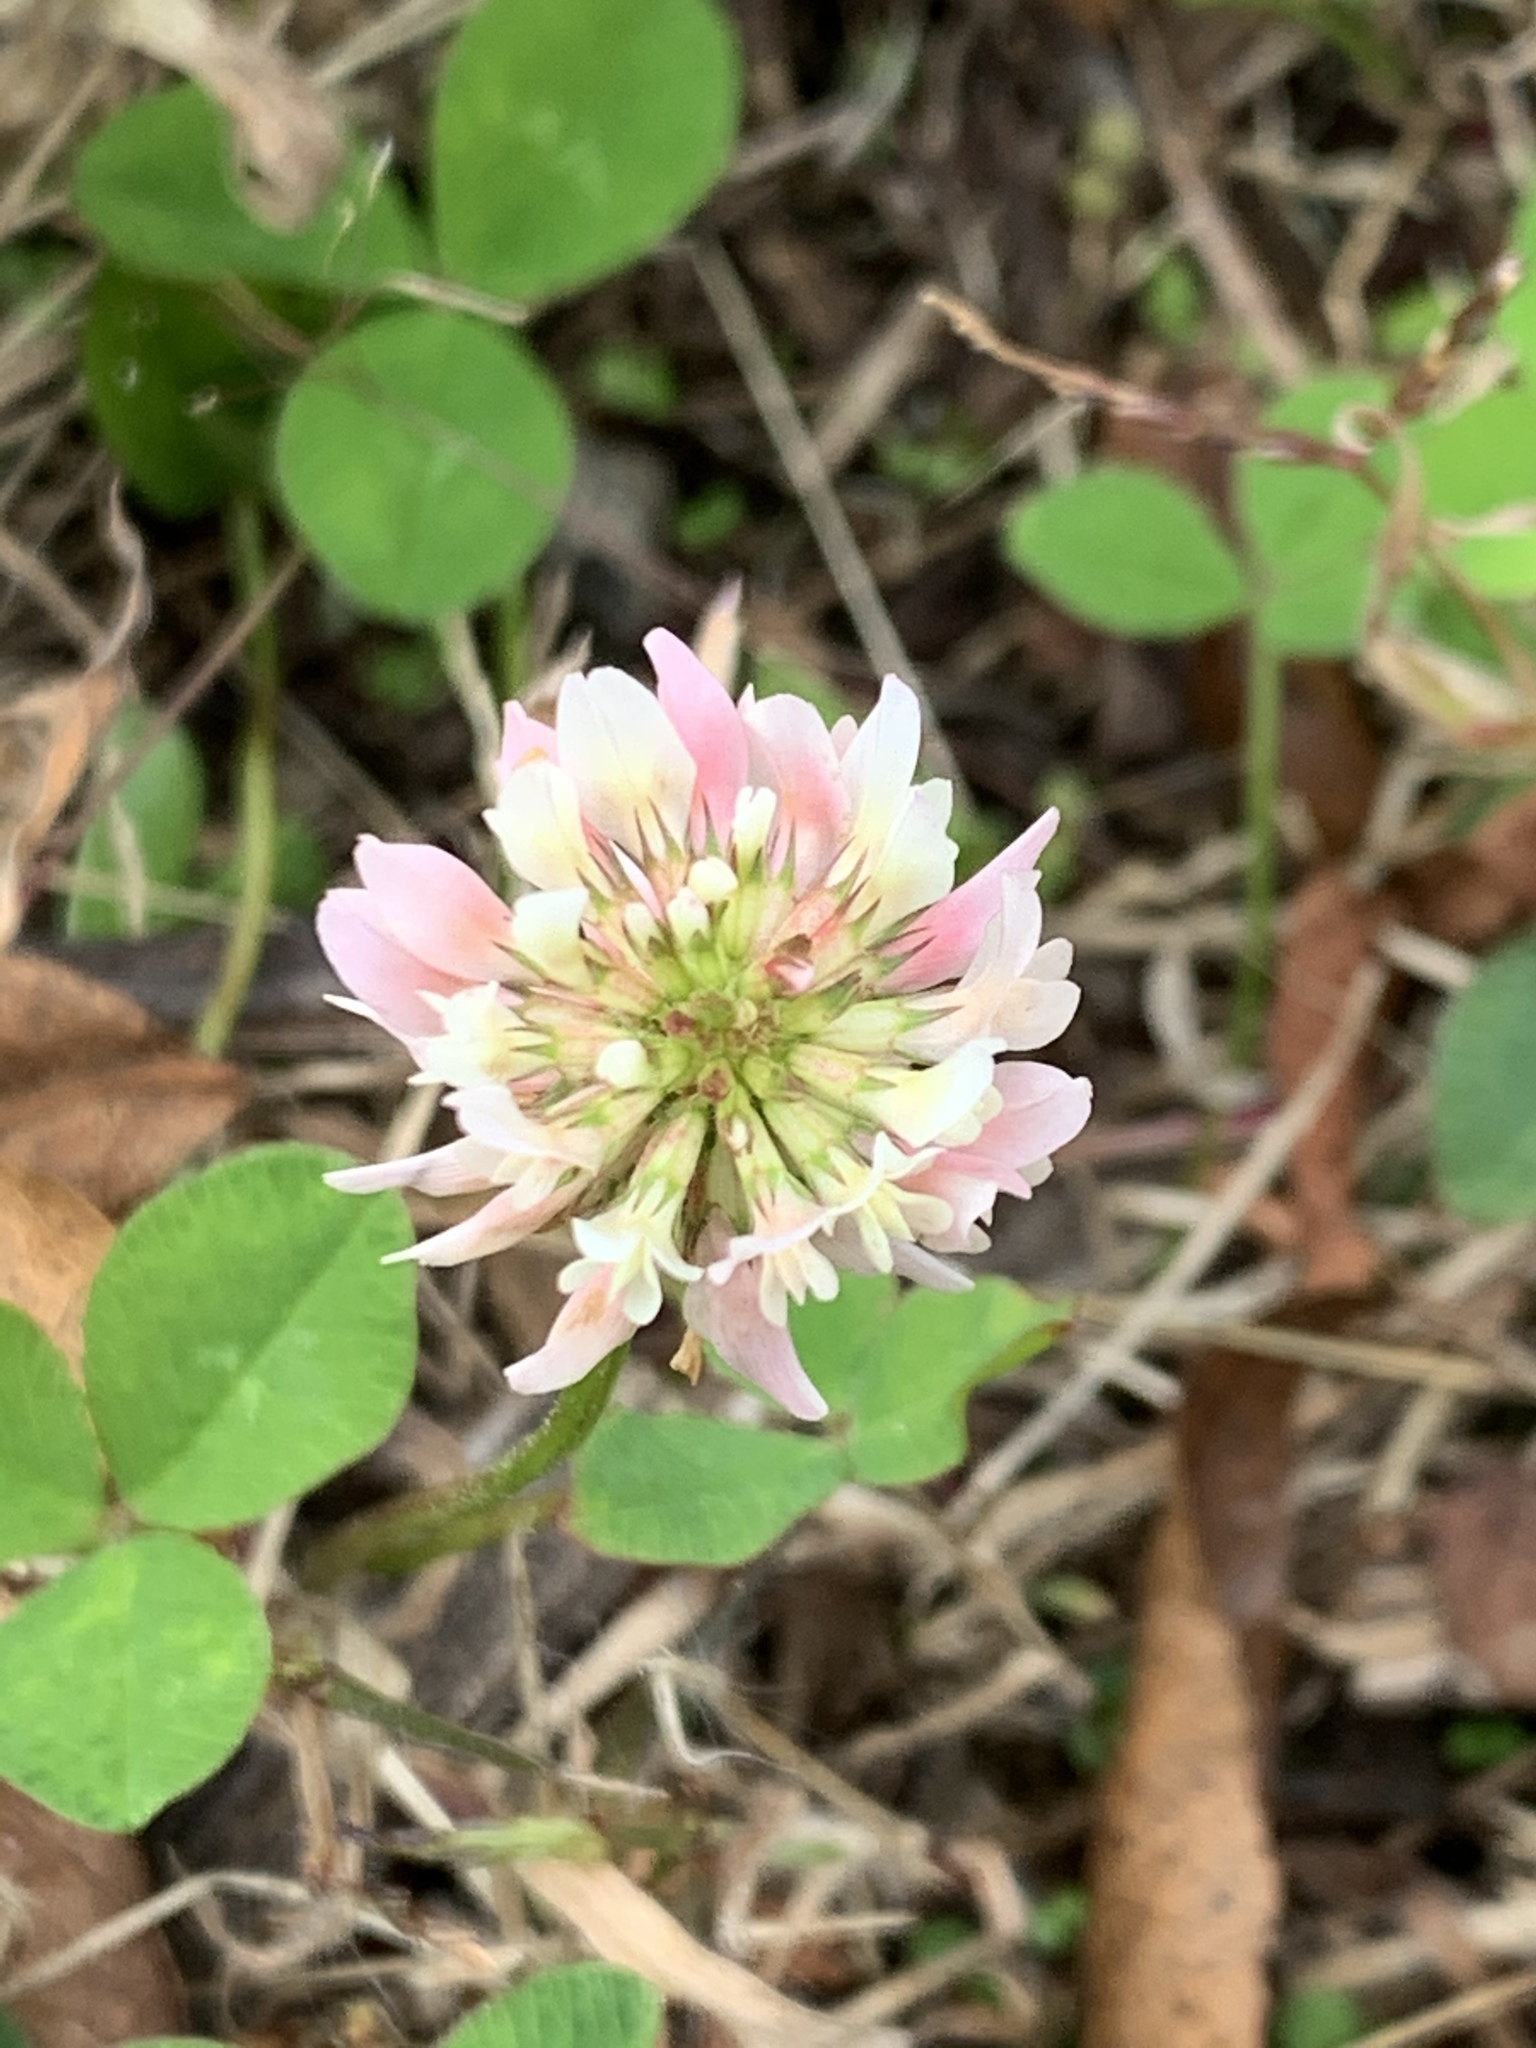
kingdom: Plantae
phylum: Tracheophyta
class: Magnoliopsida
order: Fabales
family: Fabaceae
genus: Trifolium
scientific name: Trifolium repens
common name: White clover
